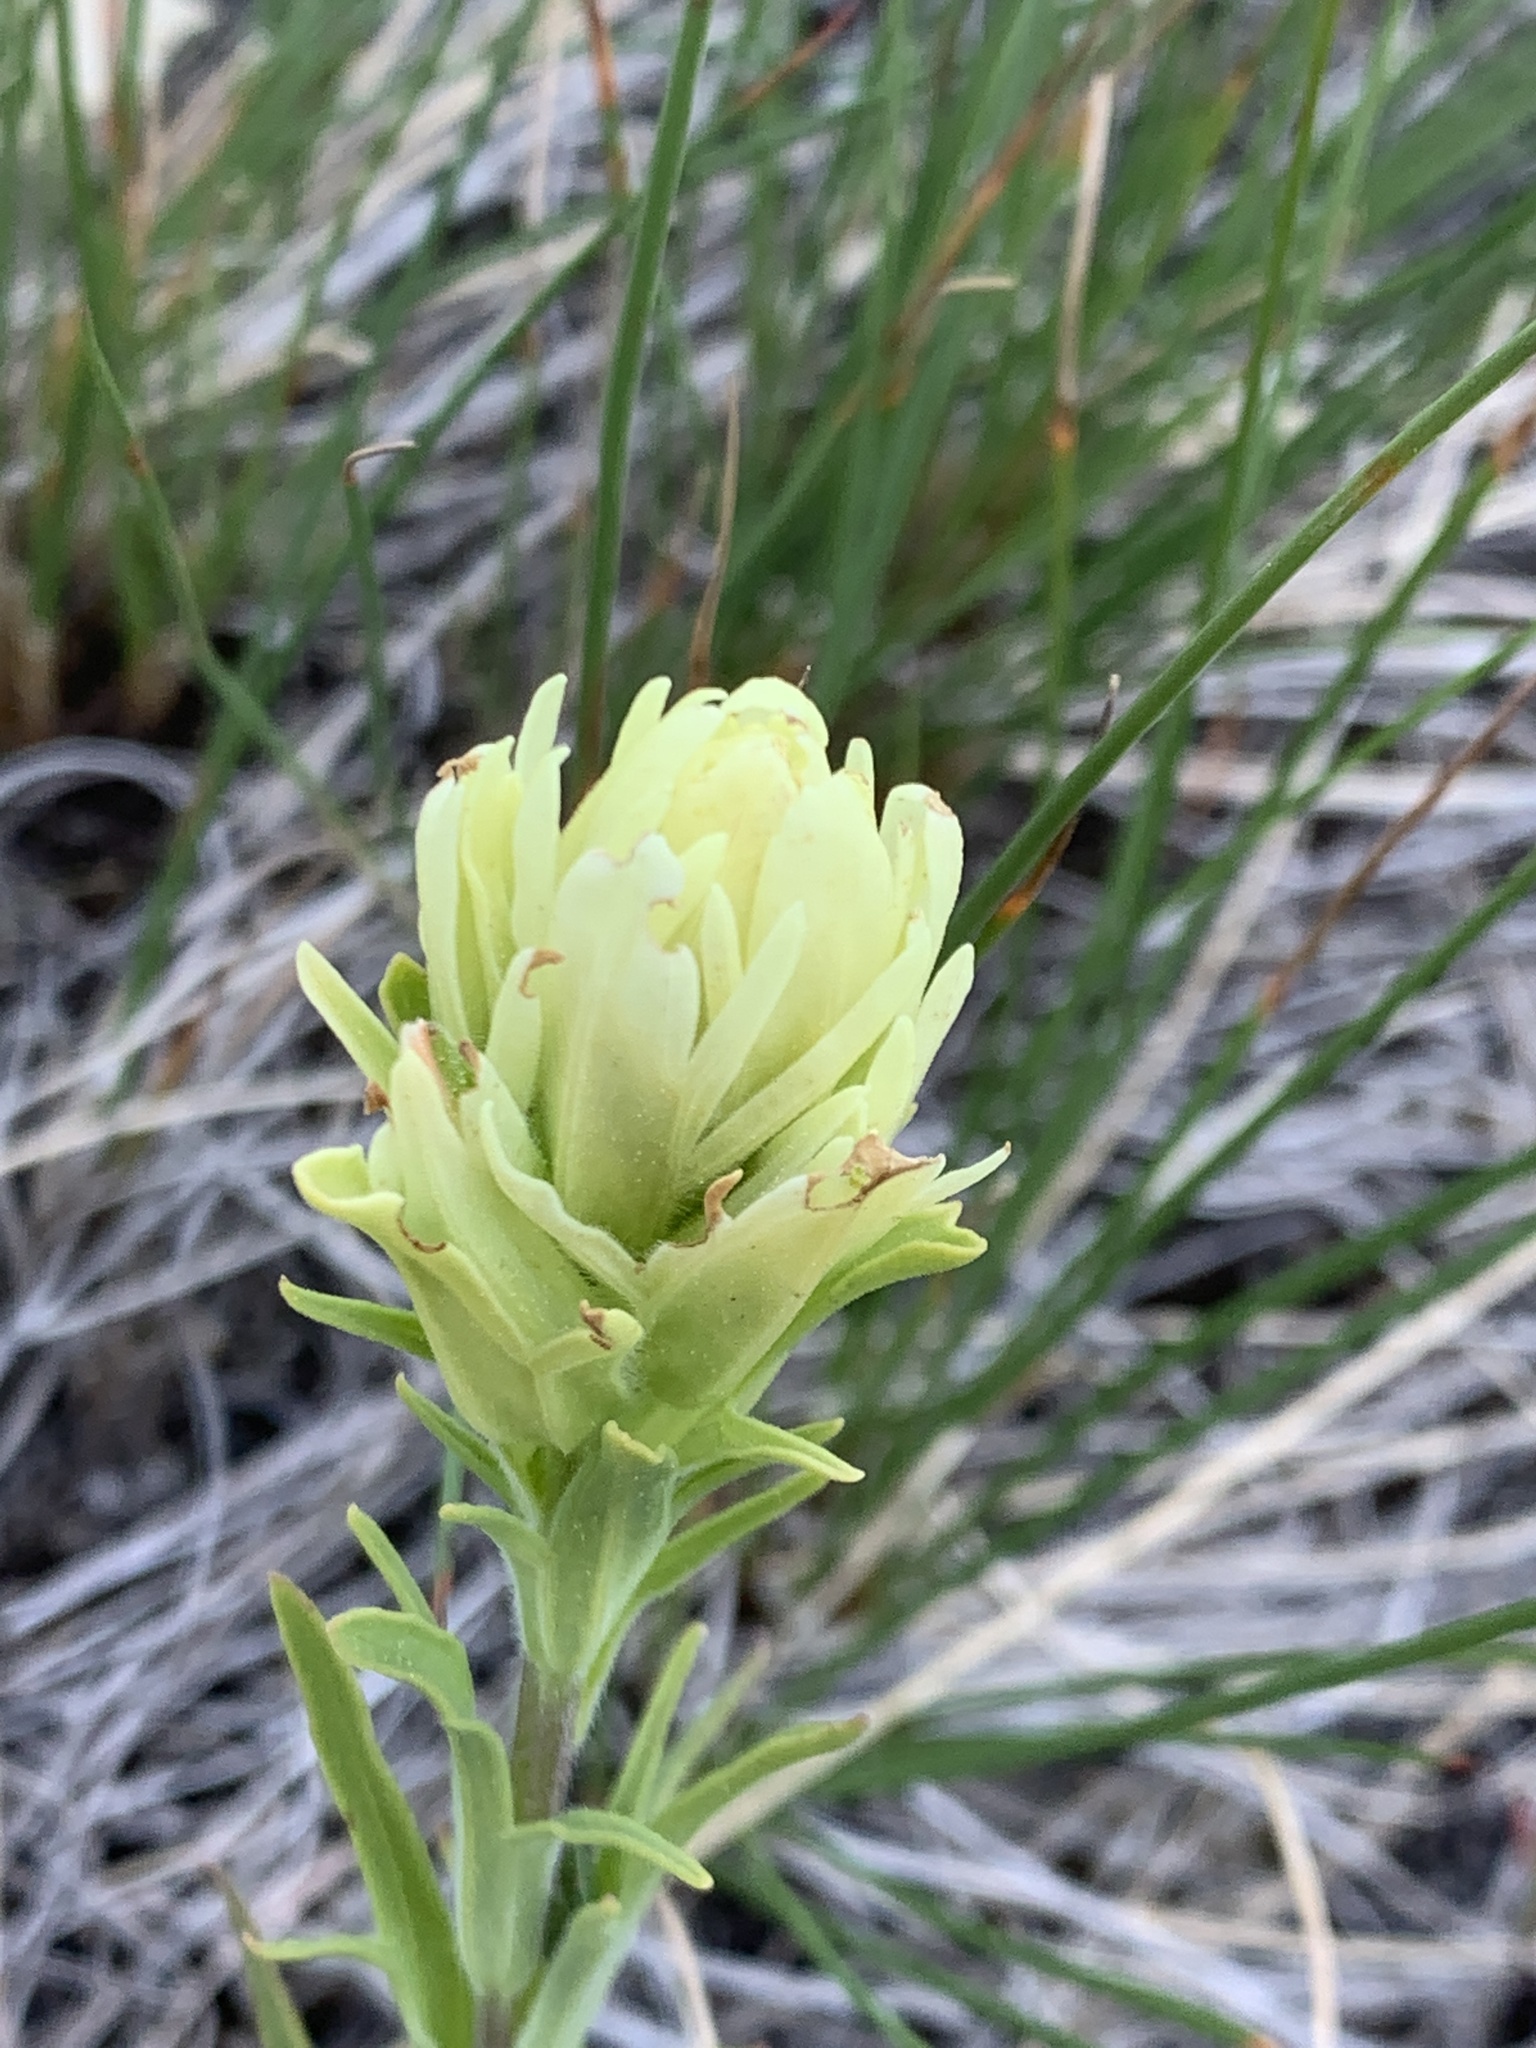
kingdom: Plantae
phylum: Tracheophyta
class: Magnoliopsida
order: Lamiales
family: Orobanchaceae
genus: Castilleja
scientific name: Castilleja cusickii
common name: Cusick's paintbrush
